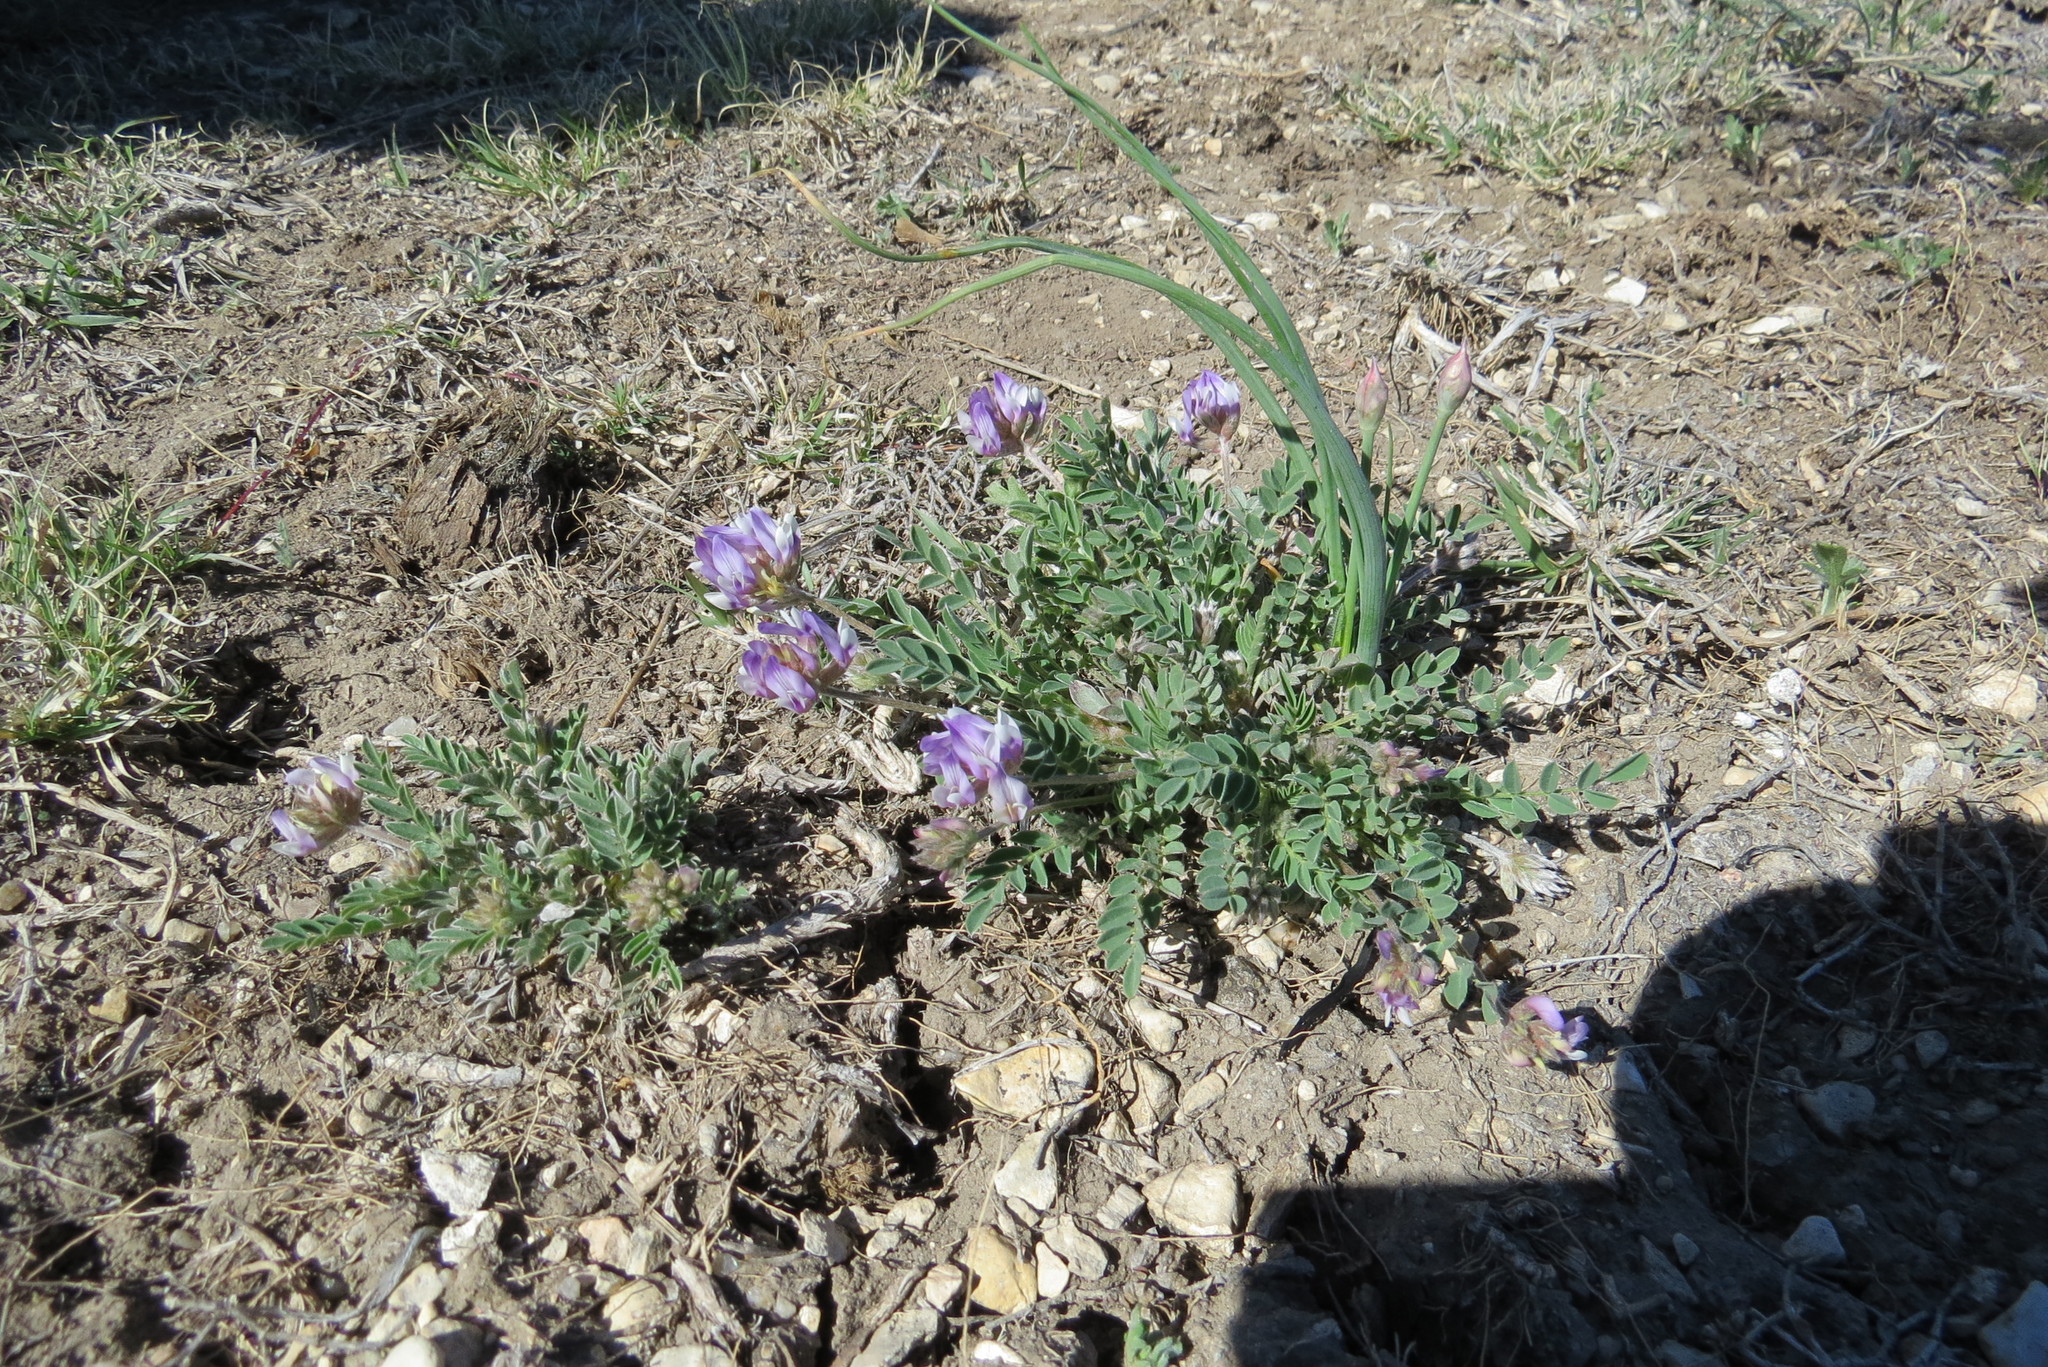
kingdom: Plantae
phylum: Tracheophyta
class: Magnoliopsida
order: Fabales
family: Fabaceae
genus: Astragalus
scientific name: Astragalus lotiflorus
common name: Lotus milk-vetch
